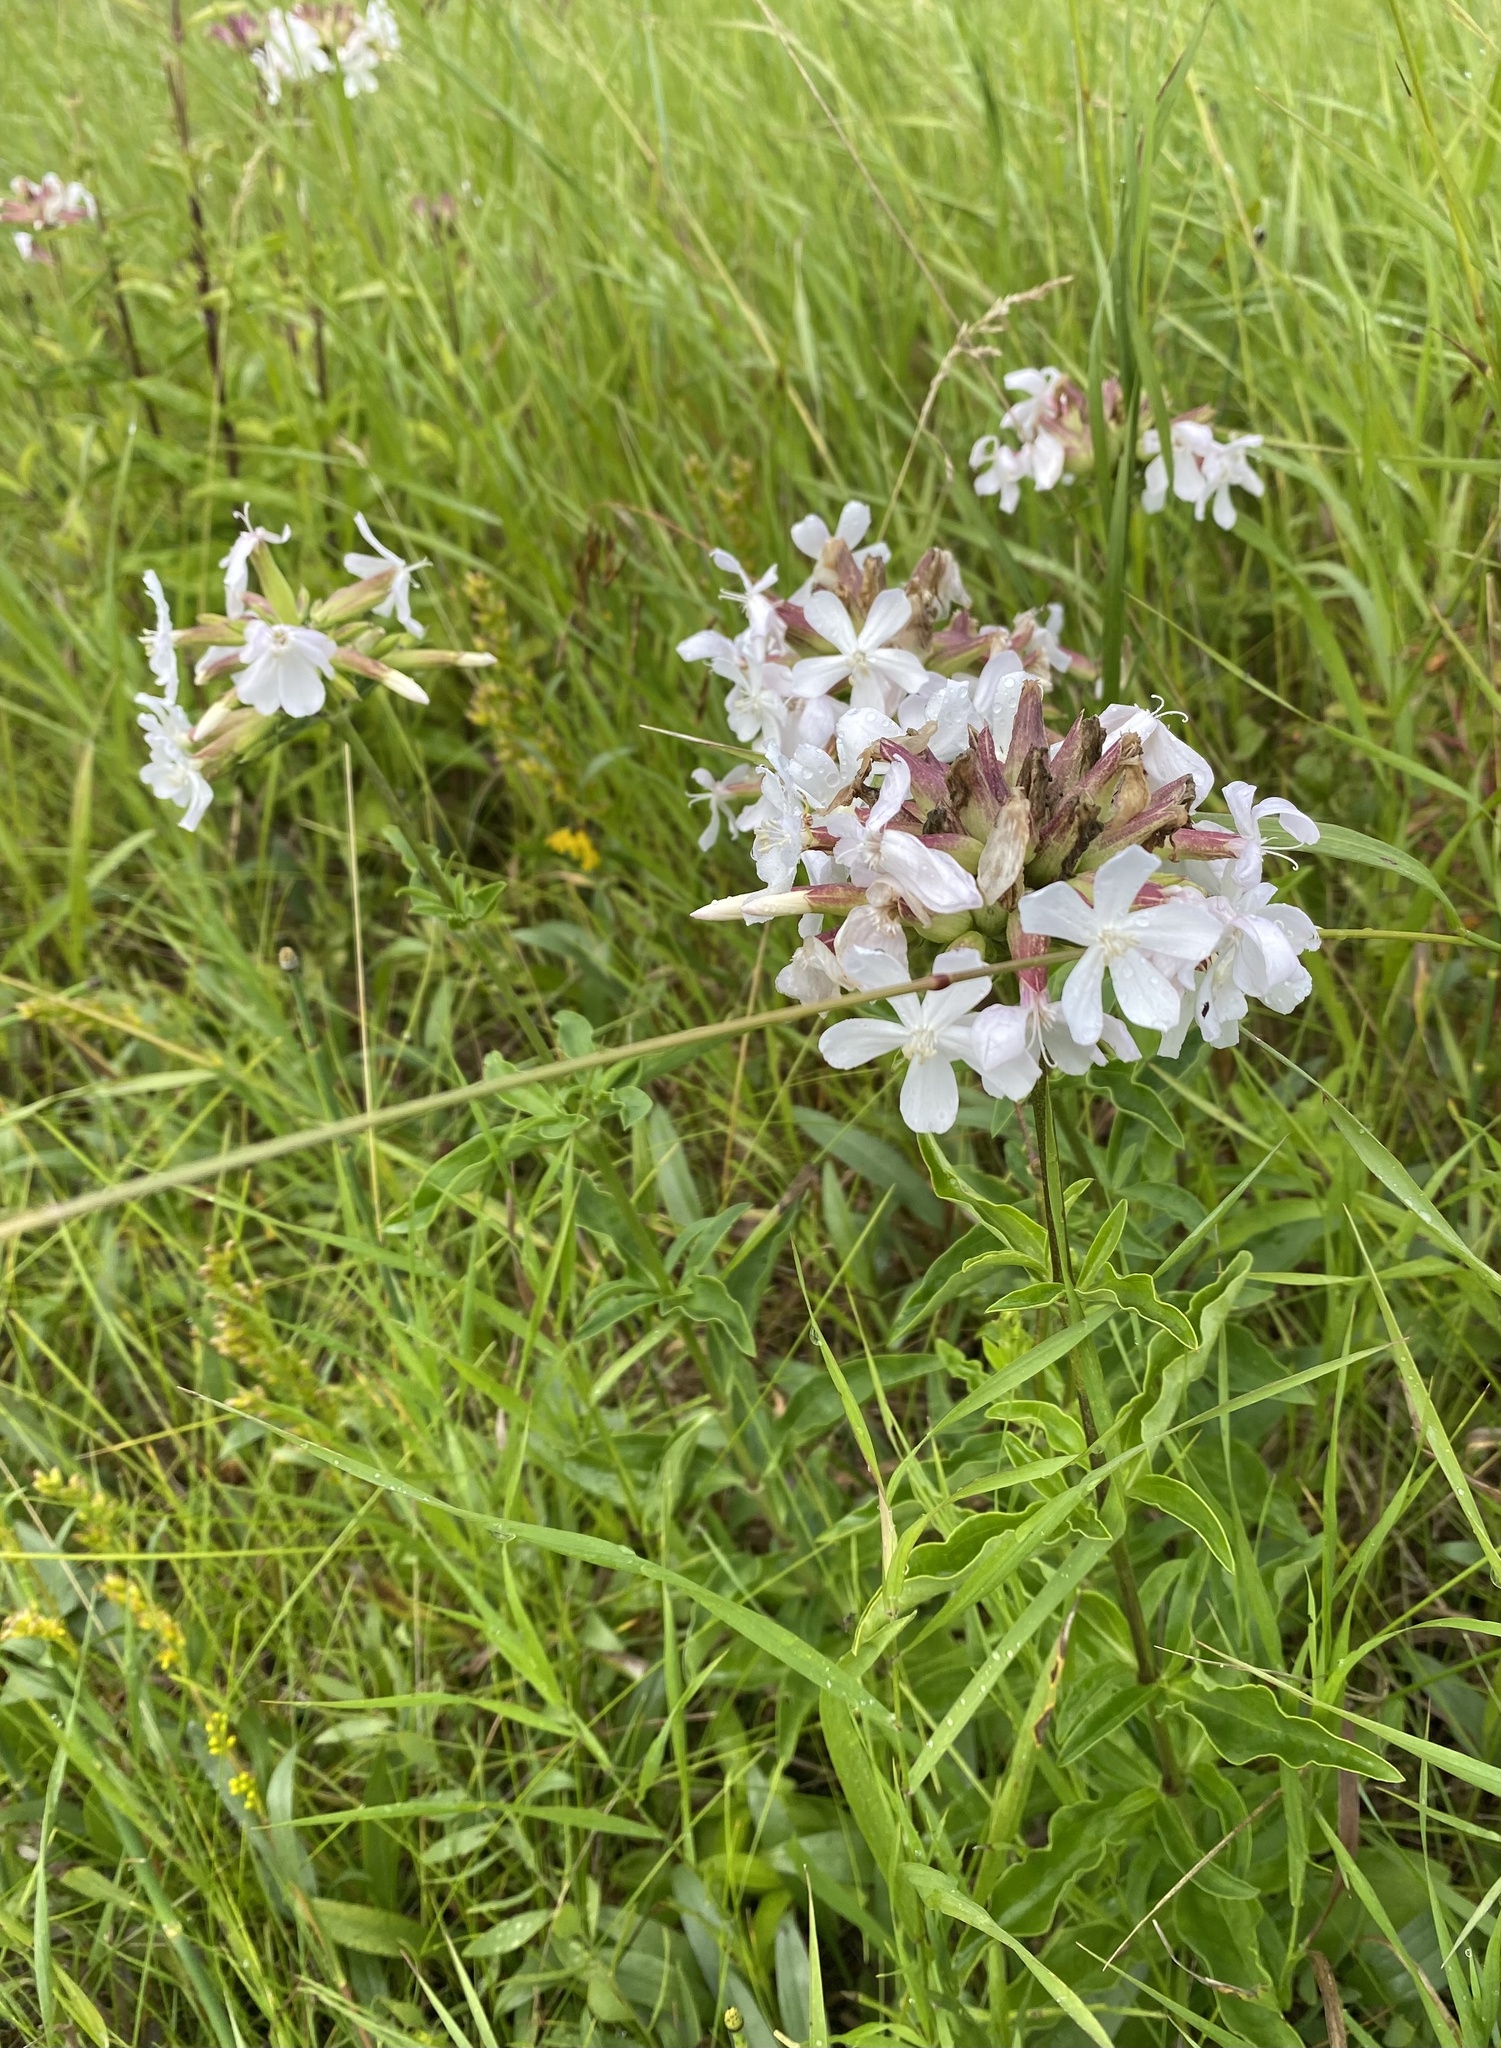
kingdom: Plantae
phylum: Tracheophyta
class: Magnoliopsida
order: Caryophyllales
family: Caryophyllaceae
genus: Saponaria
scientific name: Saponaria officinalis
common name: Soapwort
